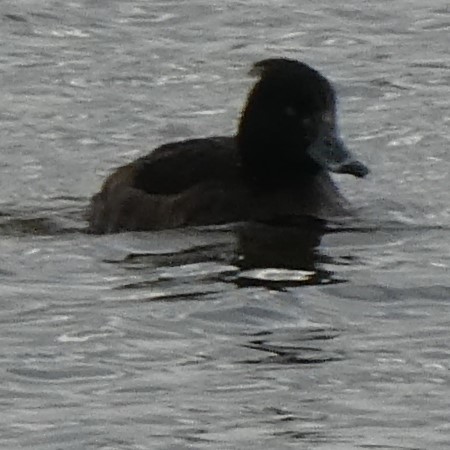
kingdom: Animalia
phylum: Chordata
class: Aves
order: Anseriformes
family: Anatidae
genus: Aythya
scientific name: Aythya fuligula
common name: Tufted duck
